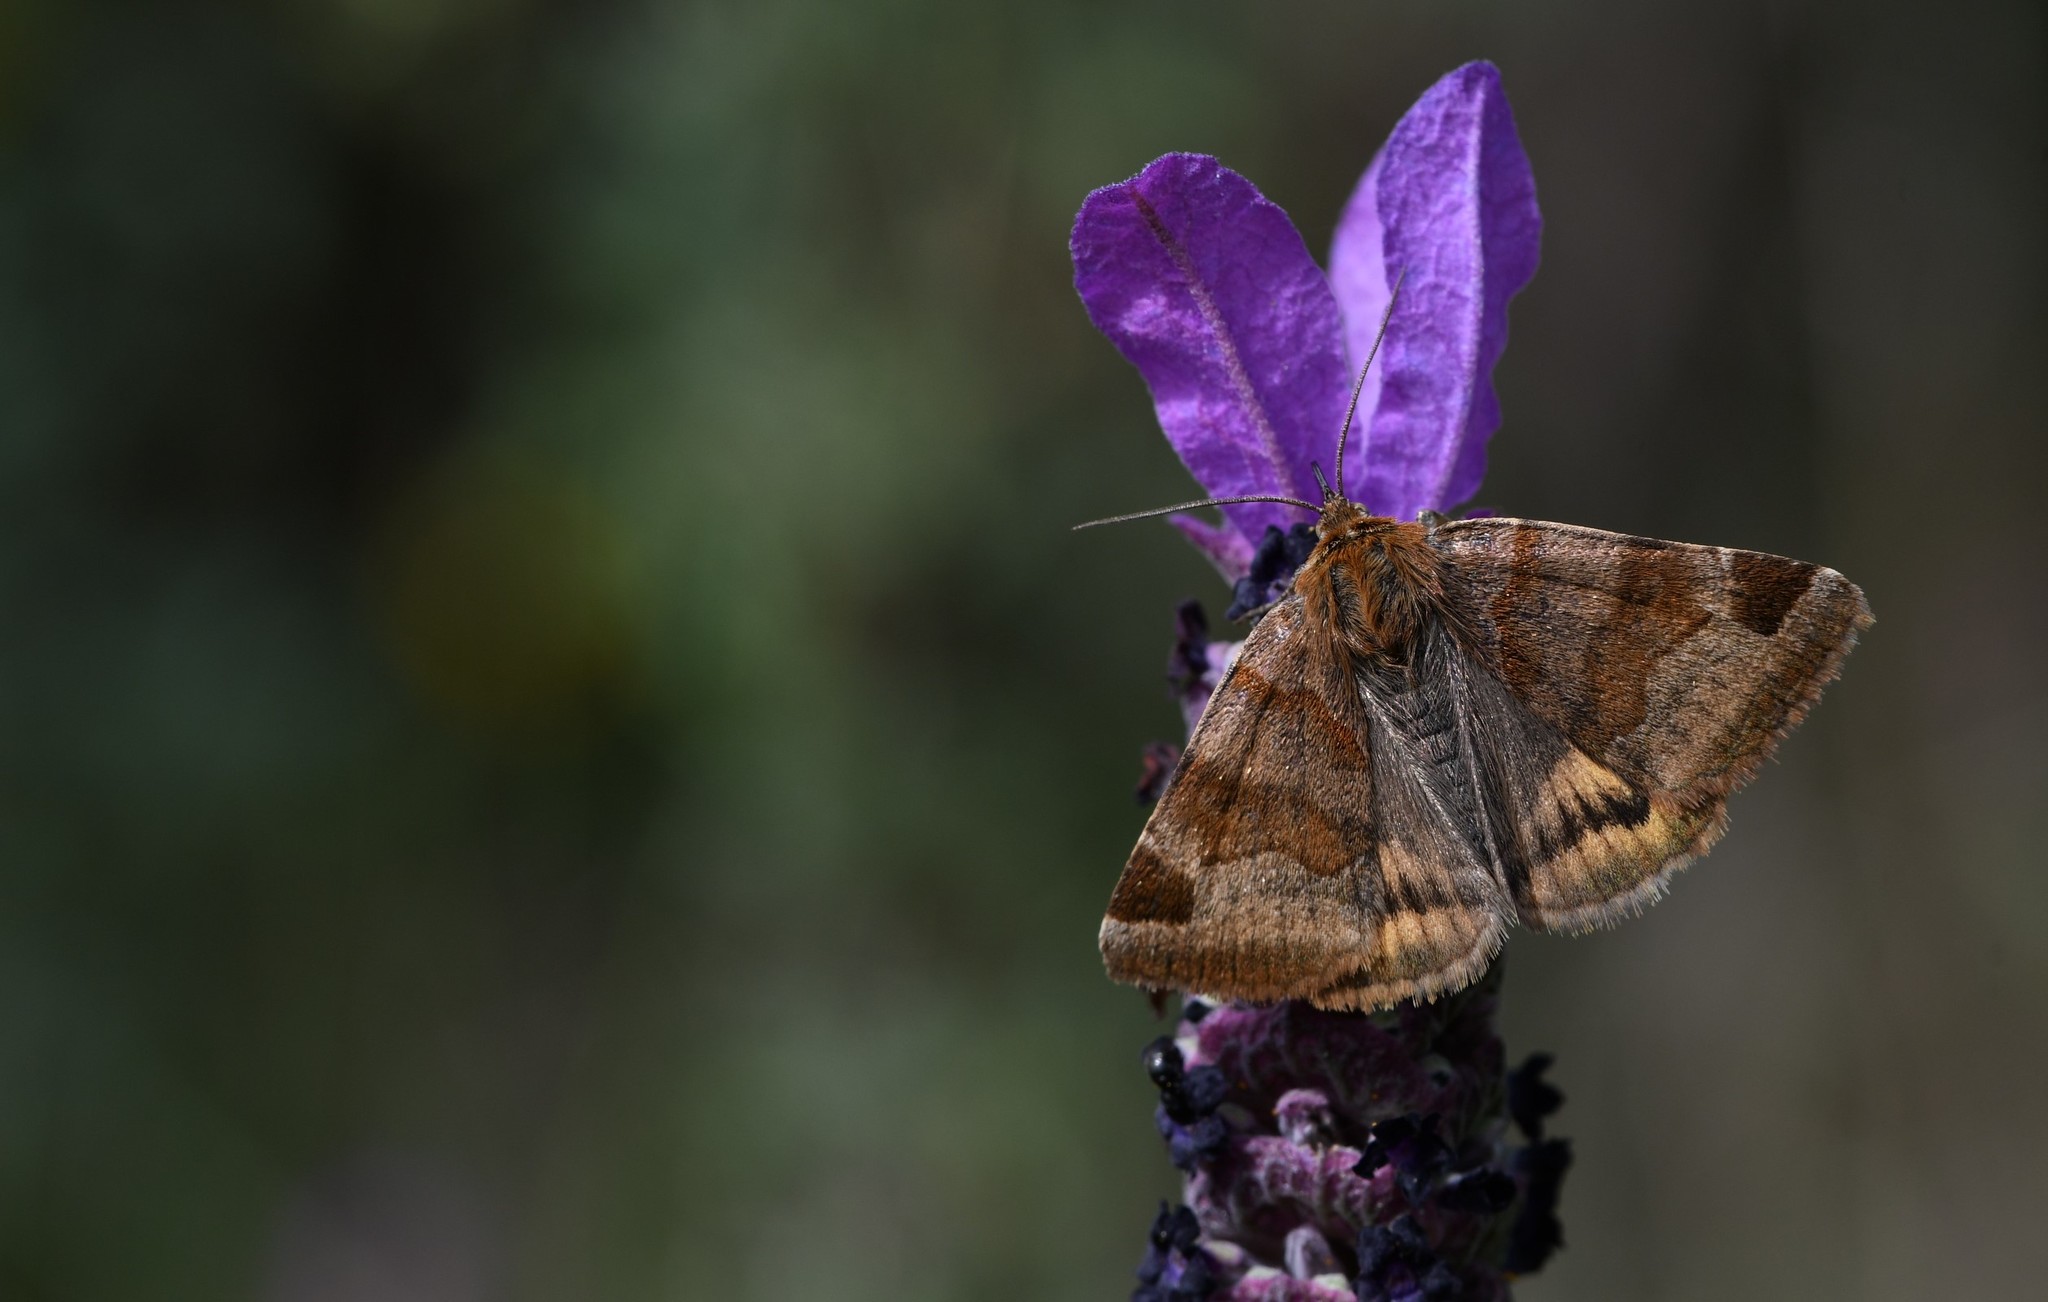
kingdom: Animalia
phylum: Arthropoda
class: Insecta
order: Lepidoptera
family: Erebidae
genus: Euclidia
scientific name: Euclidia glyphica
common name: Burnet companion
